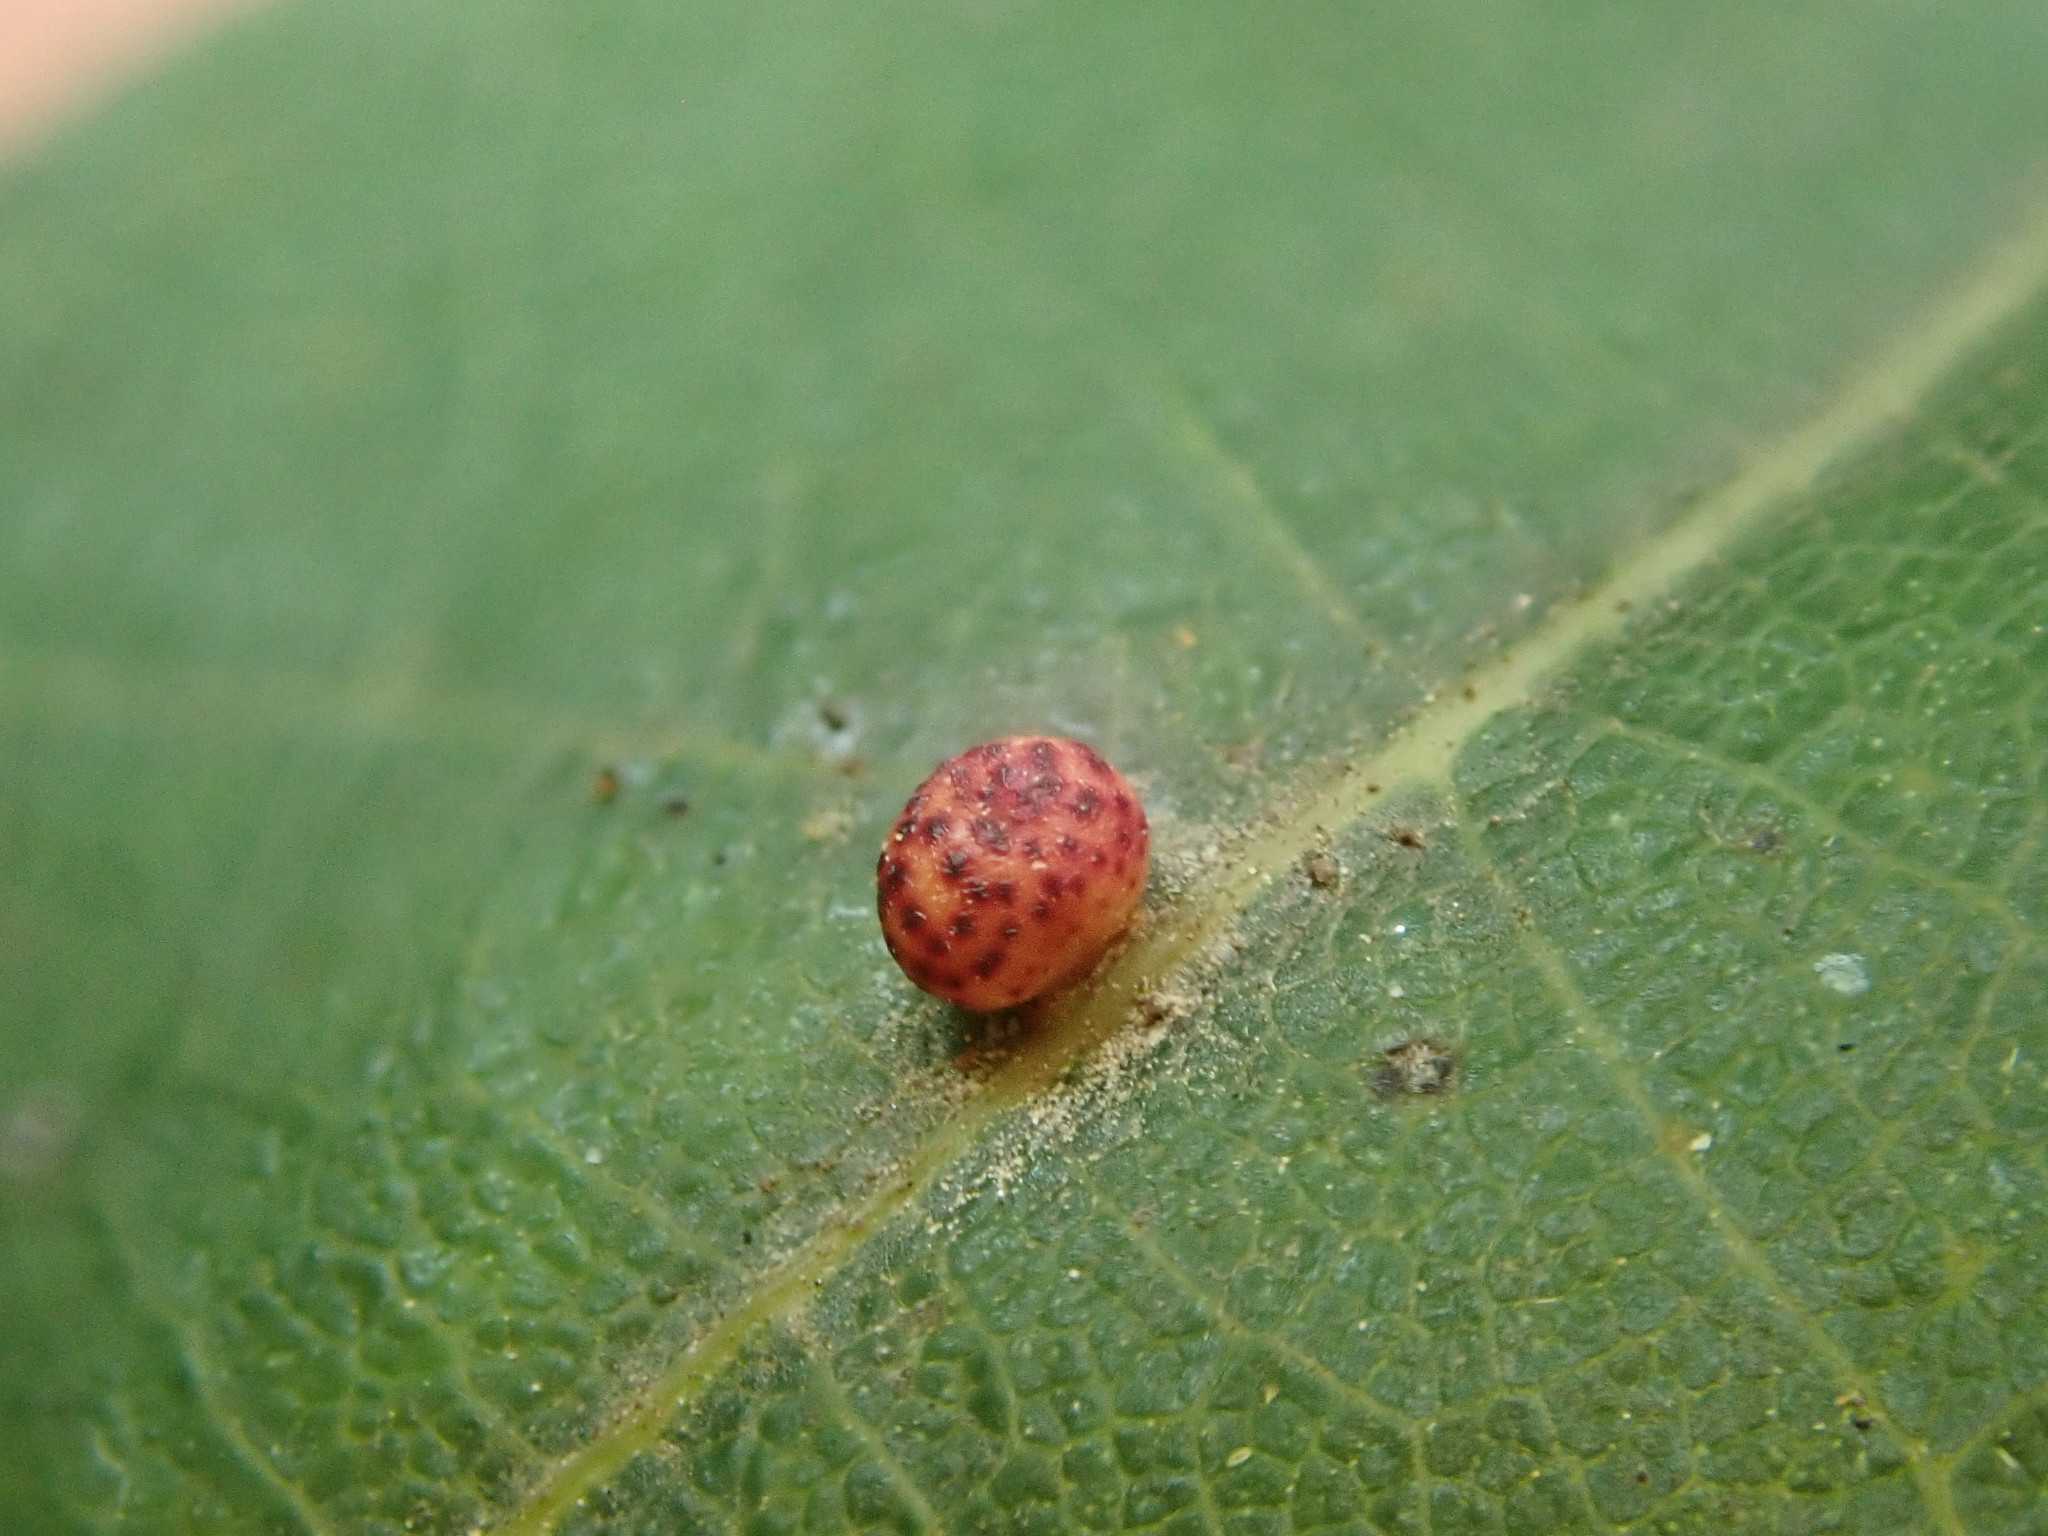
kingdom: Animalia
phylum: Arthropoda
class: Insecta
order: Hymenoptera
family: Cynipidae
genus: Zopheroteras
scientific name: Zopheroteras
